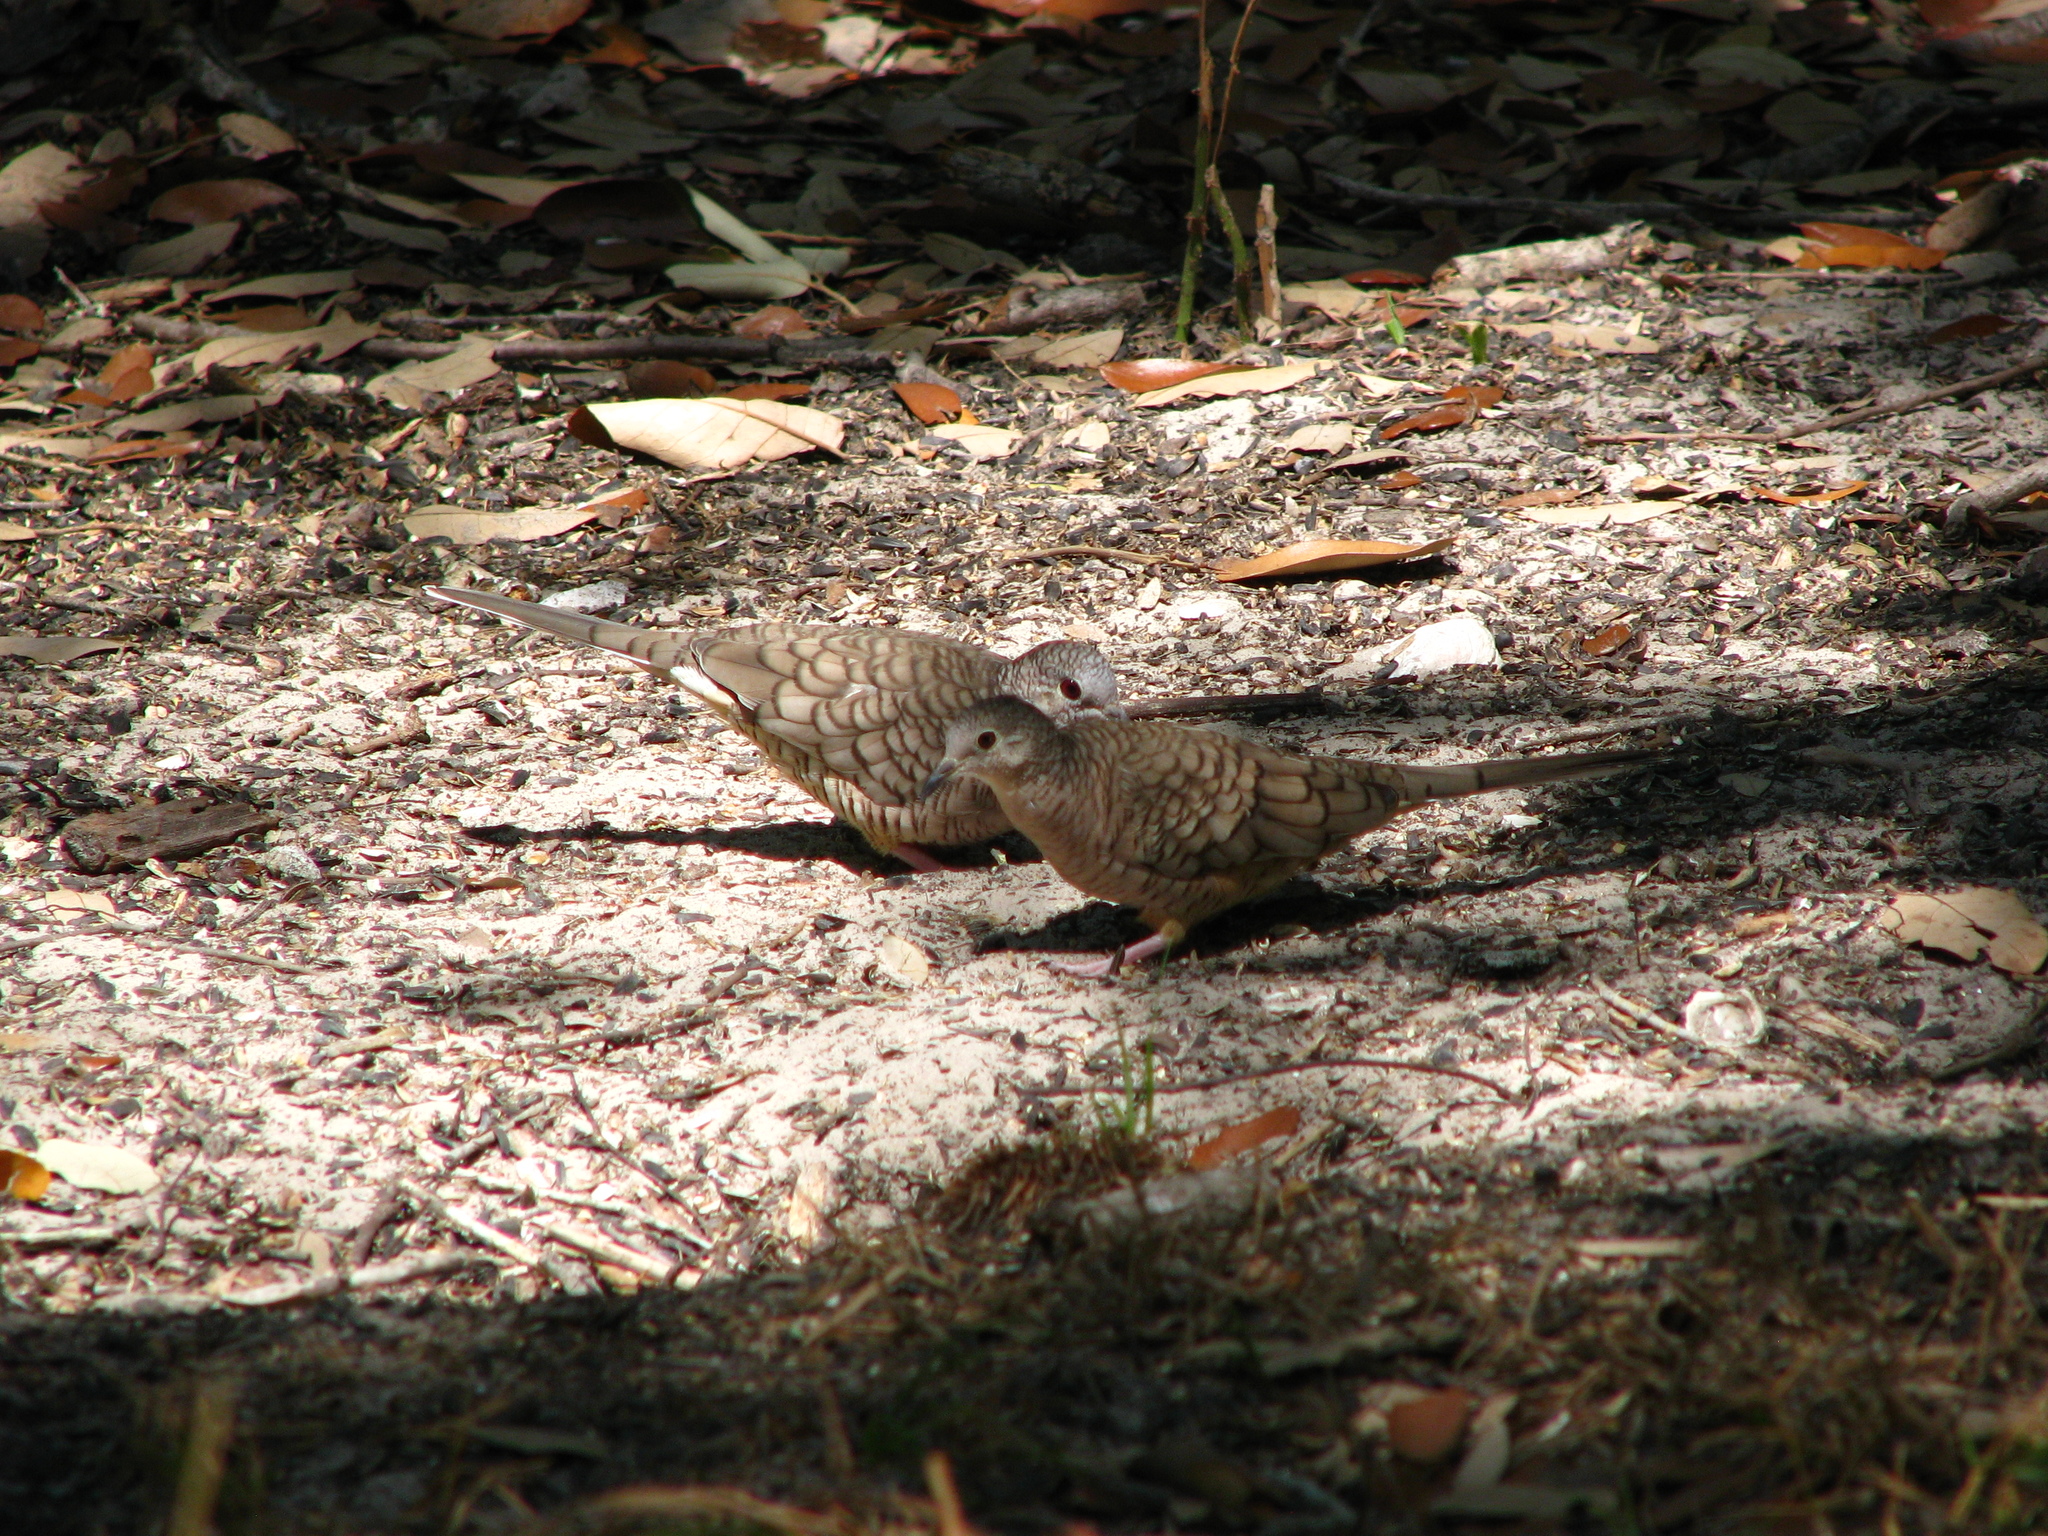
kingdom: Animalia
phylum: Chordata
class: Aves
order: Columbiformes
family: Columbidae
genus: Columbina
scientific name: Columbina inca
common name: Inca dove
